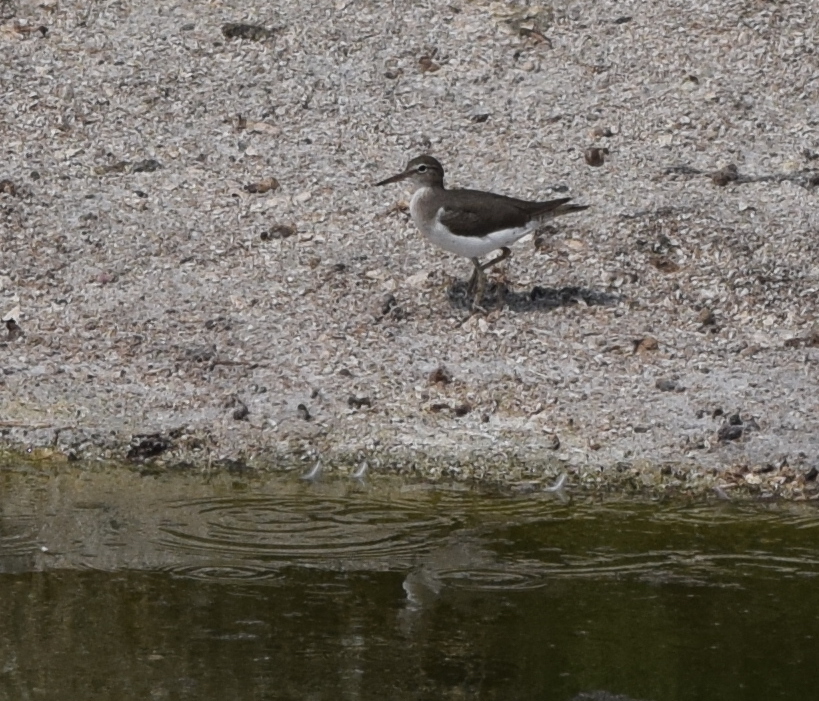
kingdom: Animalia
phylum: Chordata
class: Aves
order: Charadriiformes
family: Scolopacidae
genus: Actitis
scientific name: Actitis macularius
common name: Spotted sandpiper
